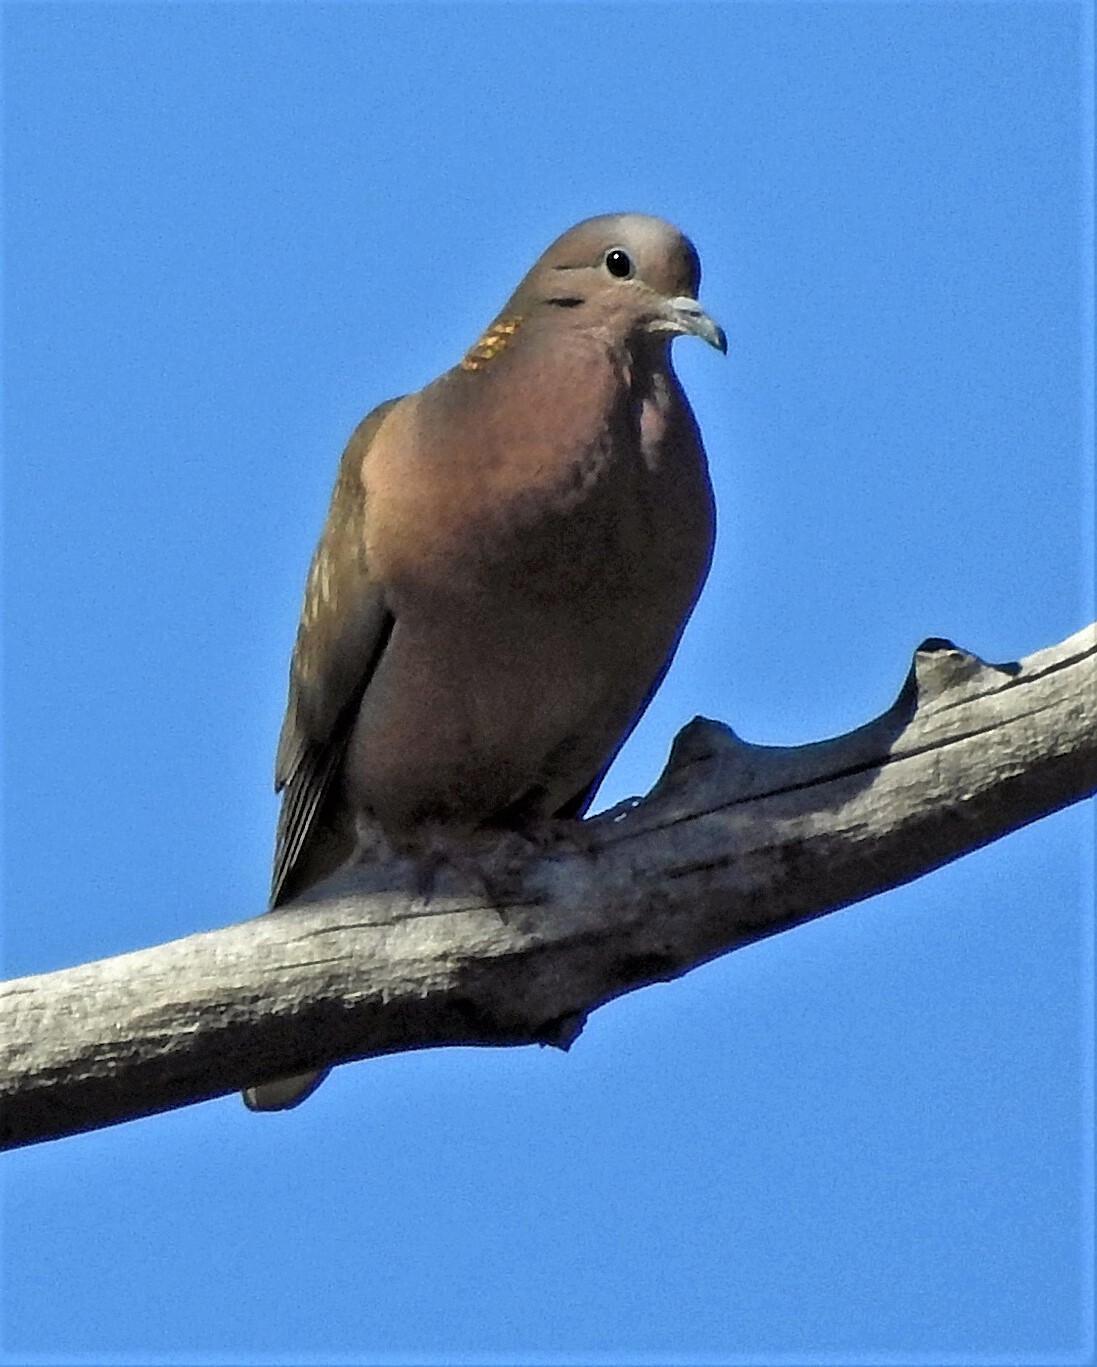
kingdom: Animalia
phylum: Chordata
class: Aves
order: Columbiformes
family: Columbidae
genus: Zenaida
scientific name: Zenaida auriculata
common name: Eared dove
